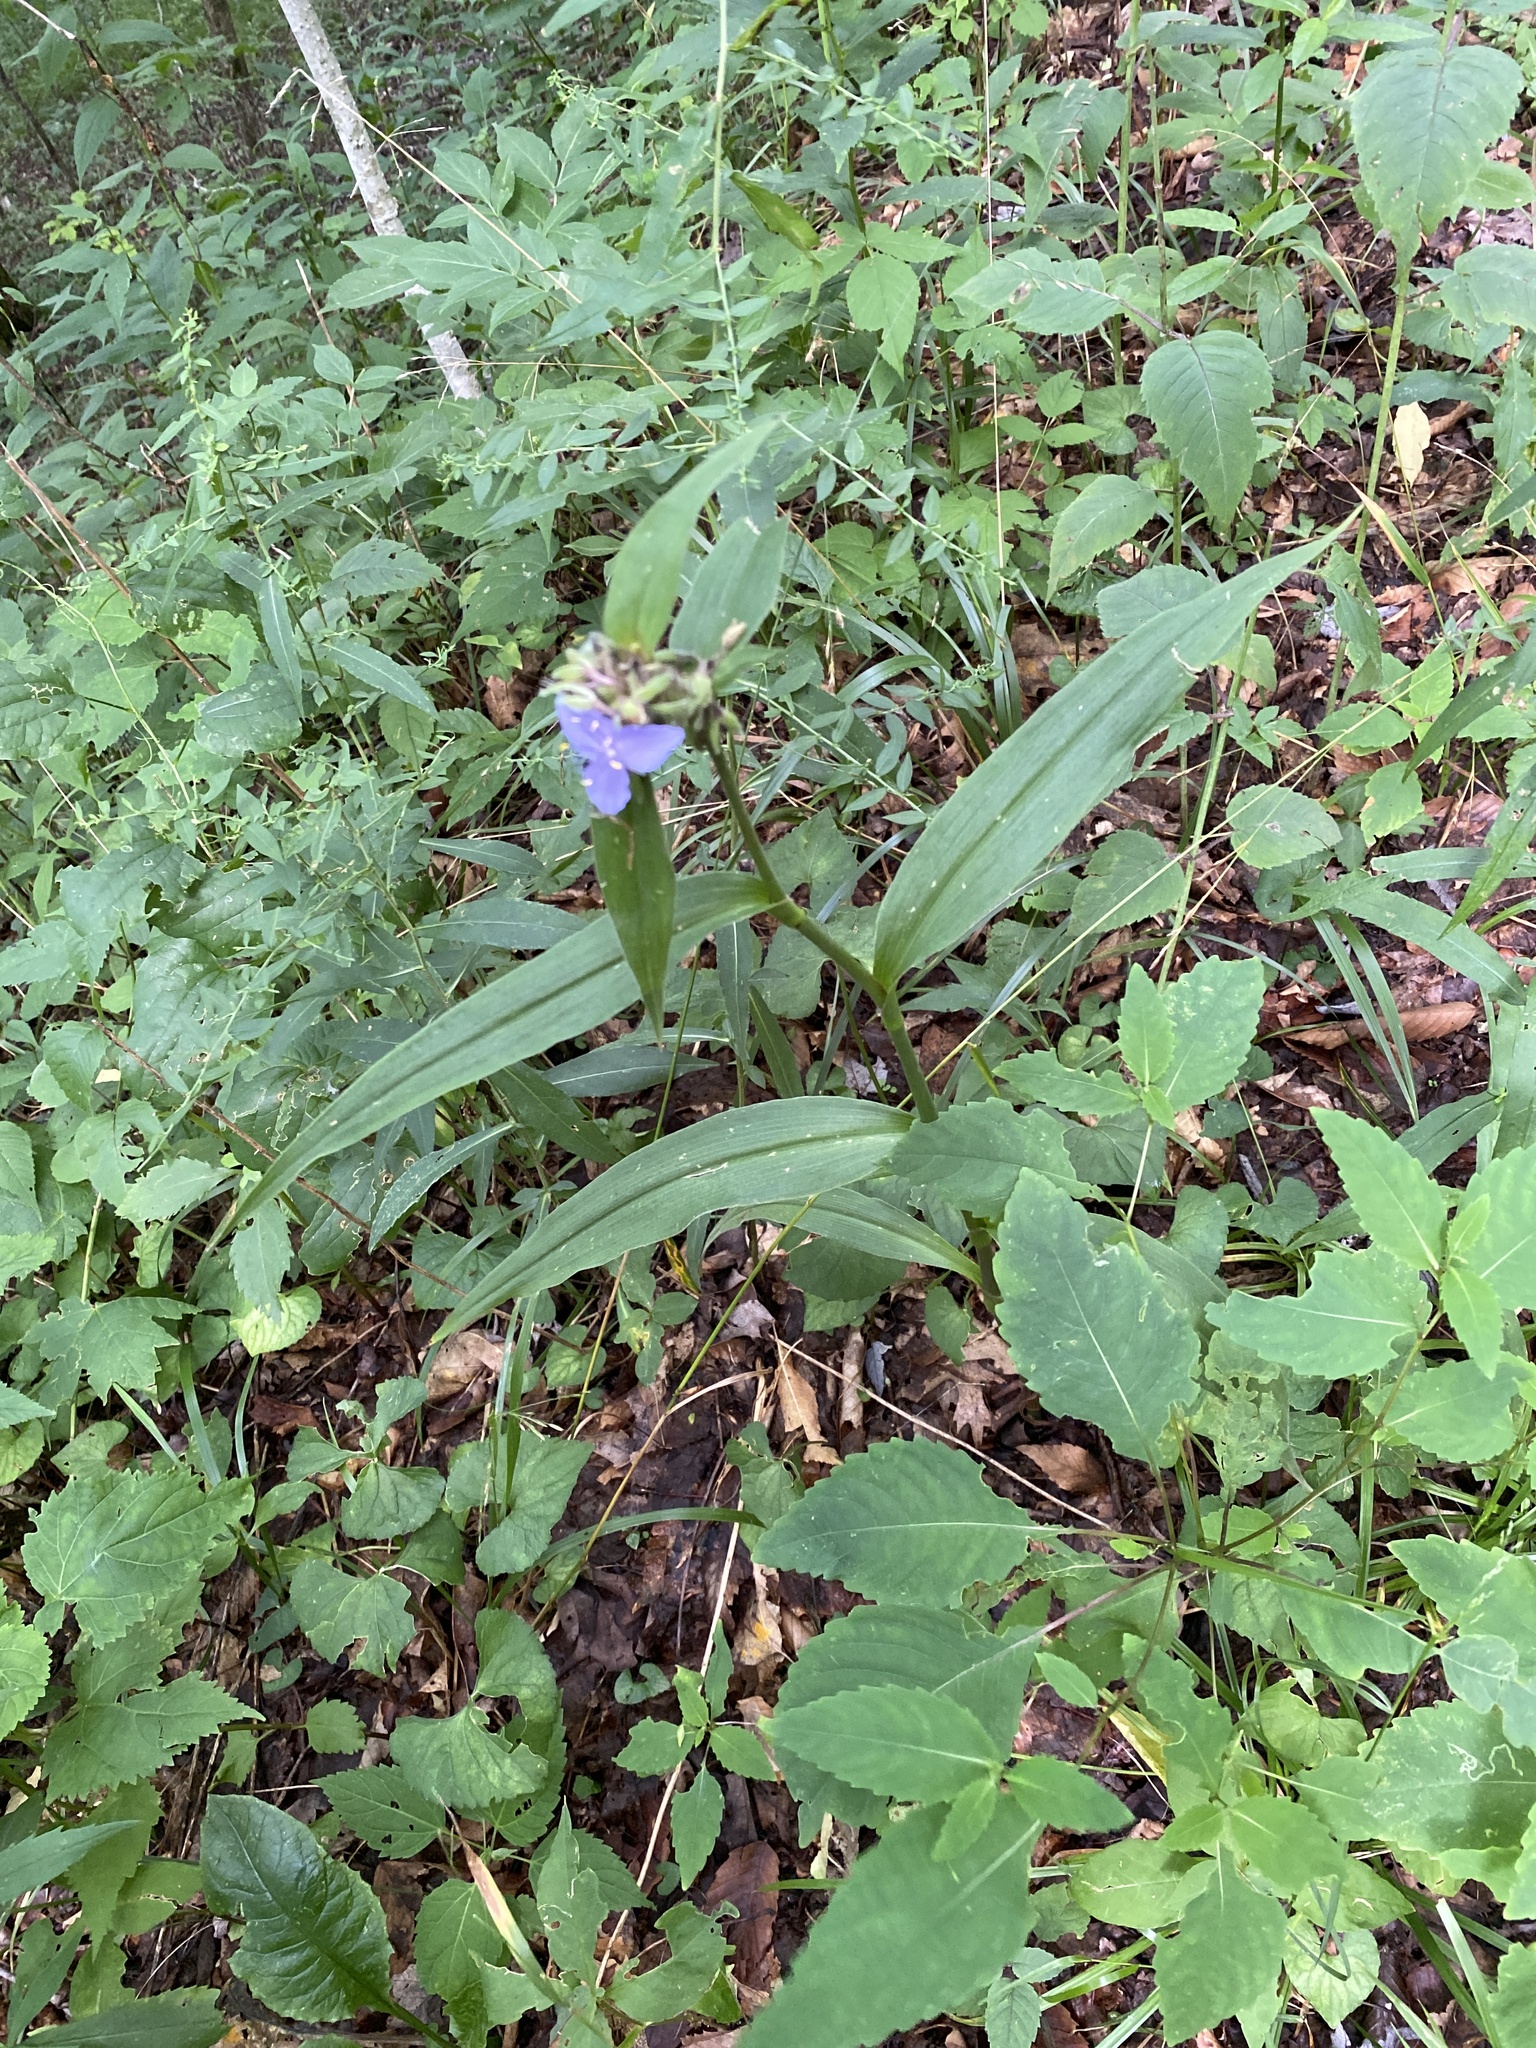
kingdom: Plantae
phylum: Tracheophyta
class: Liliopsida
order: Commelinales
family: Commelinaceae
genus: Tradescantia
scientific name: Tradescantia subaspera
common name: Wide-leaf spiderwort
